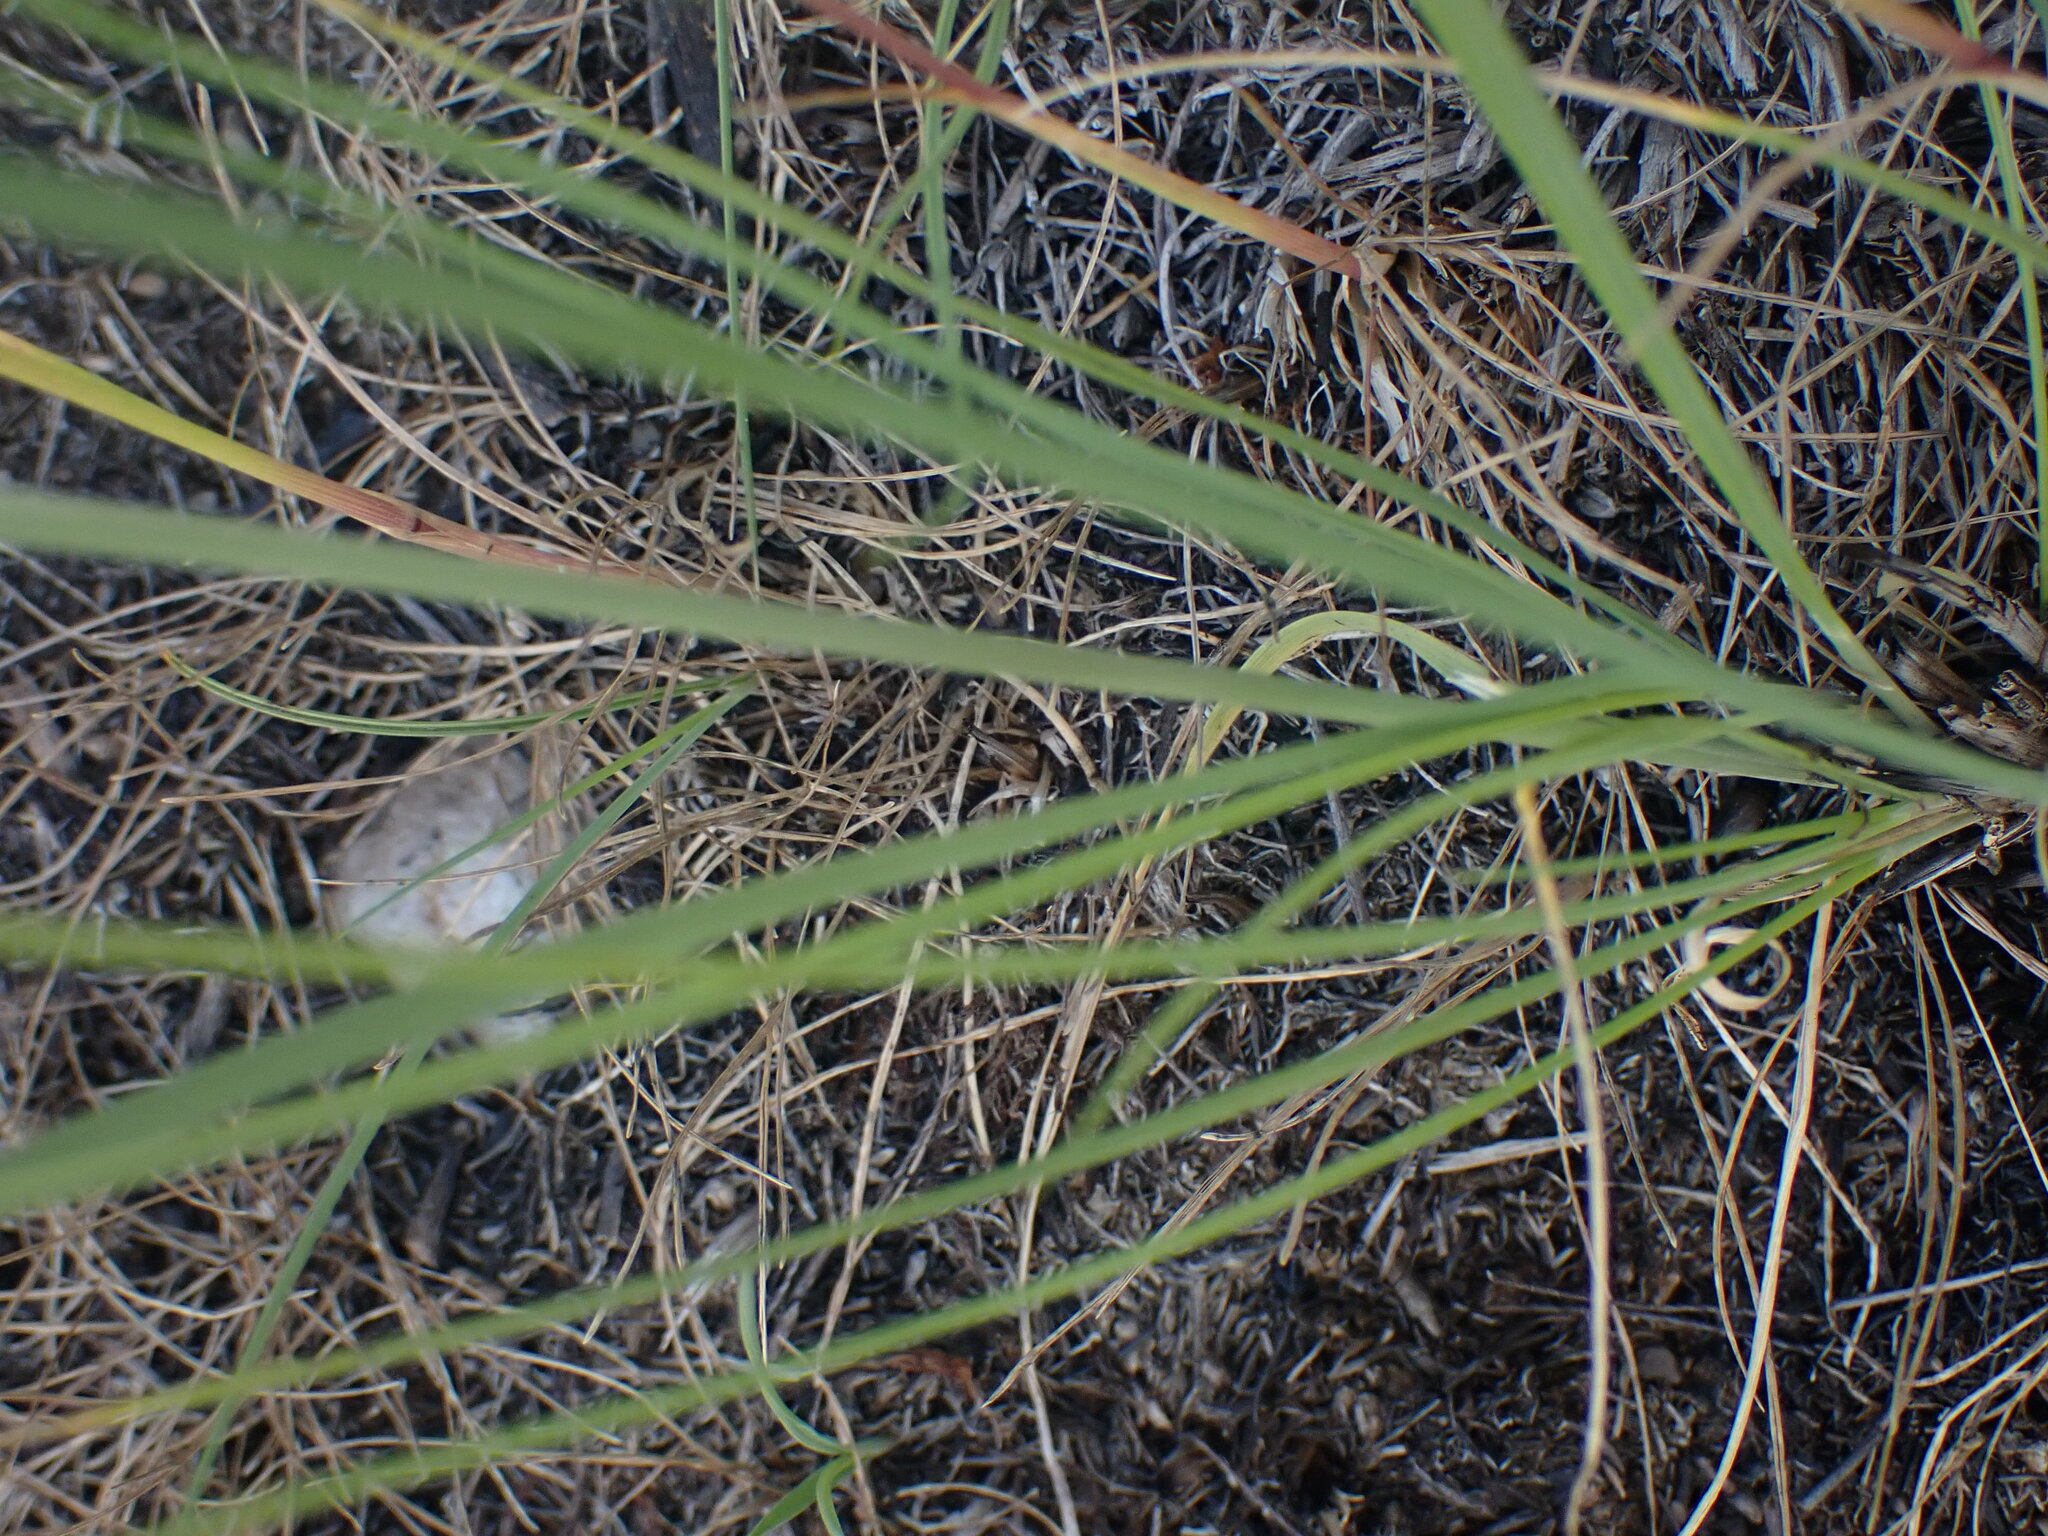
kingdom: Plantae
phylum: Tracheophyta
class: Liliopsida
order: Poales
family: Poaceae
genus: Poa
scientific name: Poa bulbosa
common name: Bulbous bluegrass
